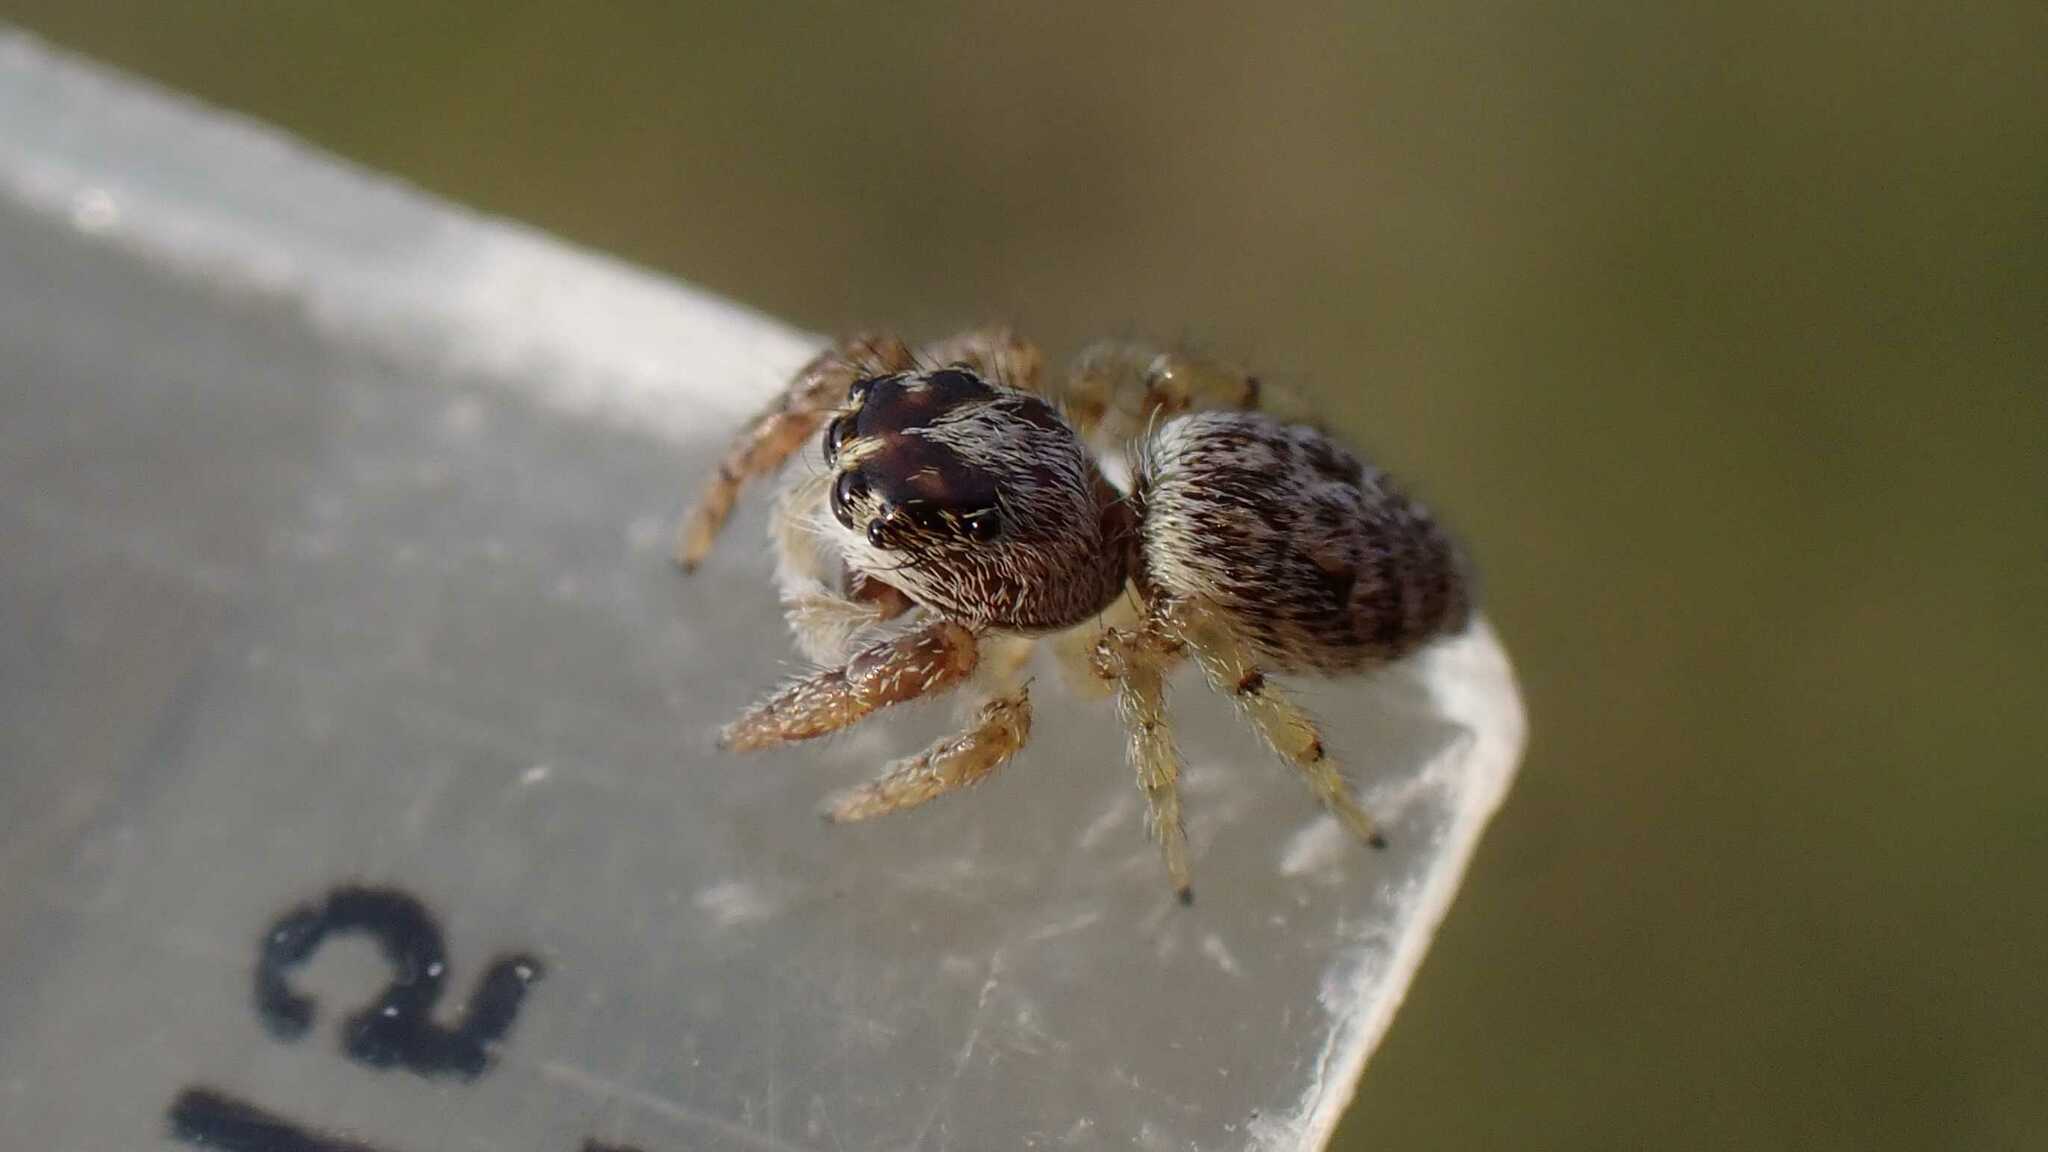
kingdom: Animalia
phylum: Arthropoda
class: Arachnida
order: Araneae
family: Salticidae
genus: Macaroeris
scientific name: Macaroeris nidicolens
